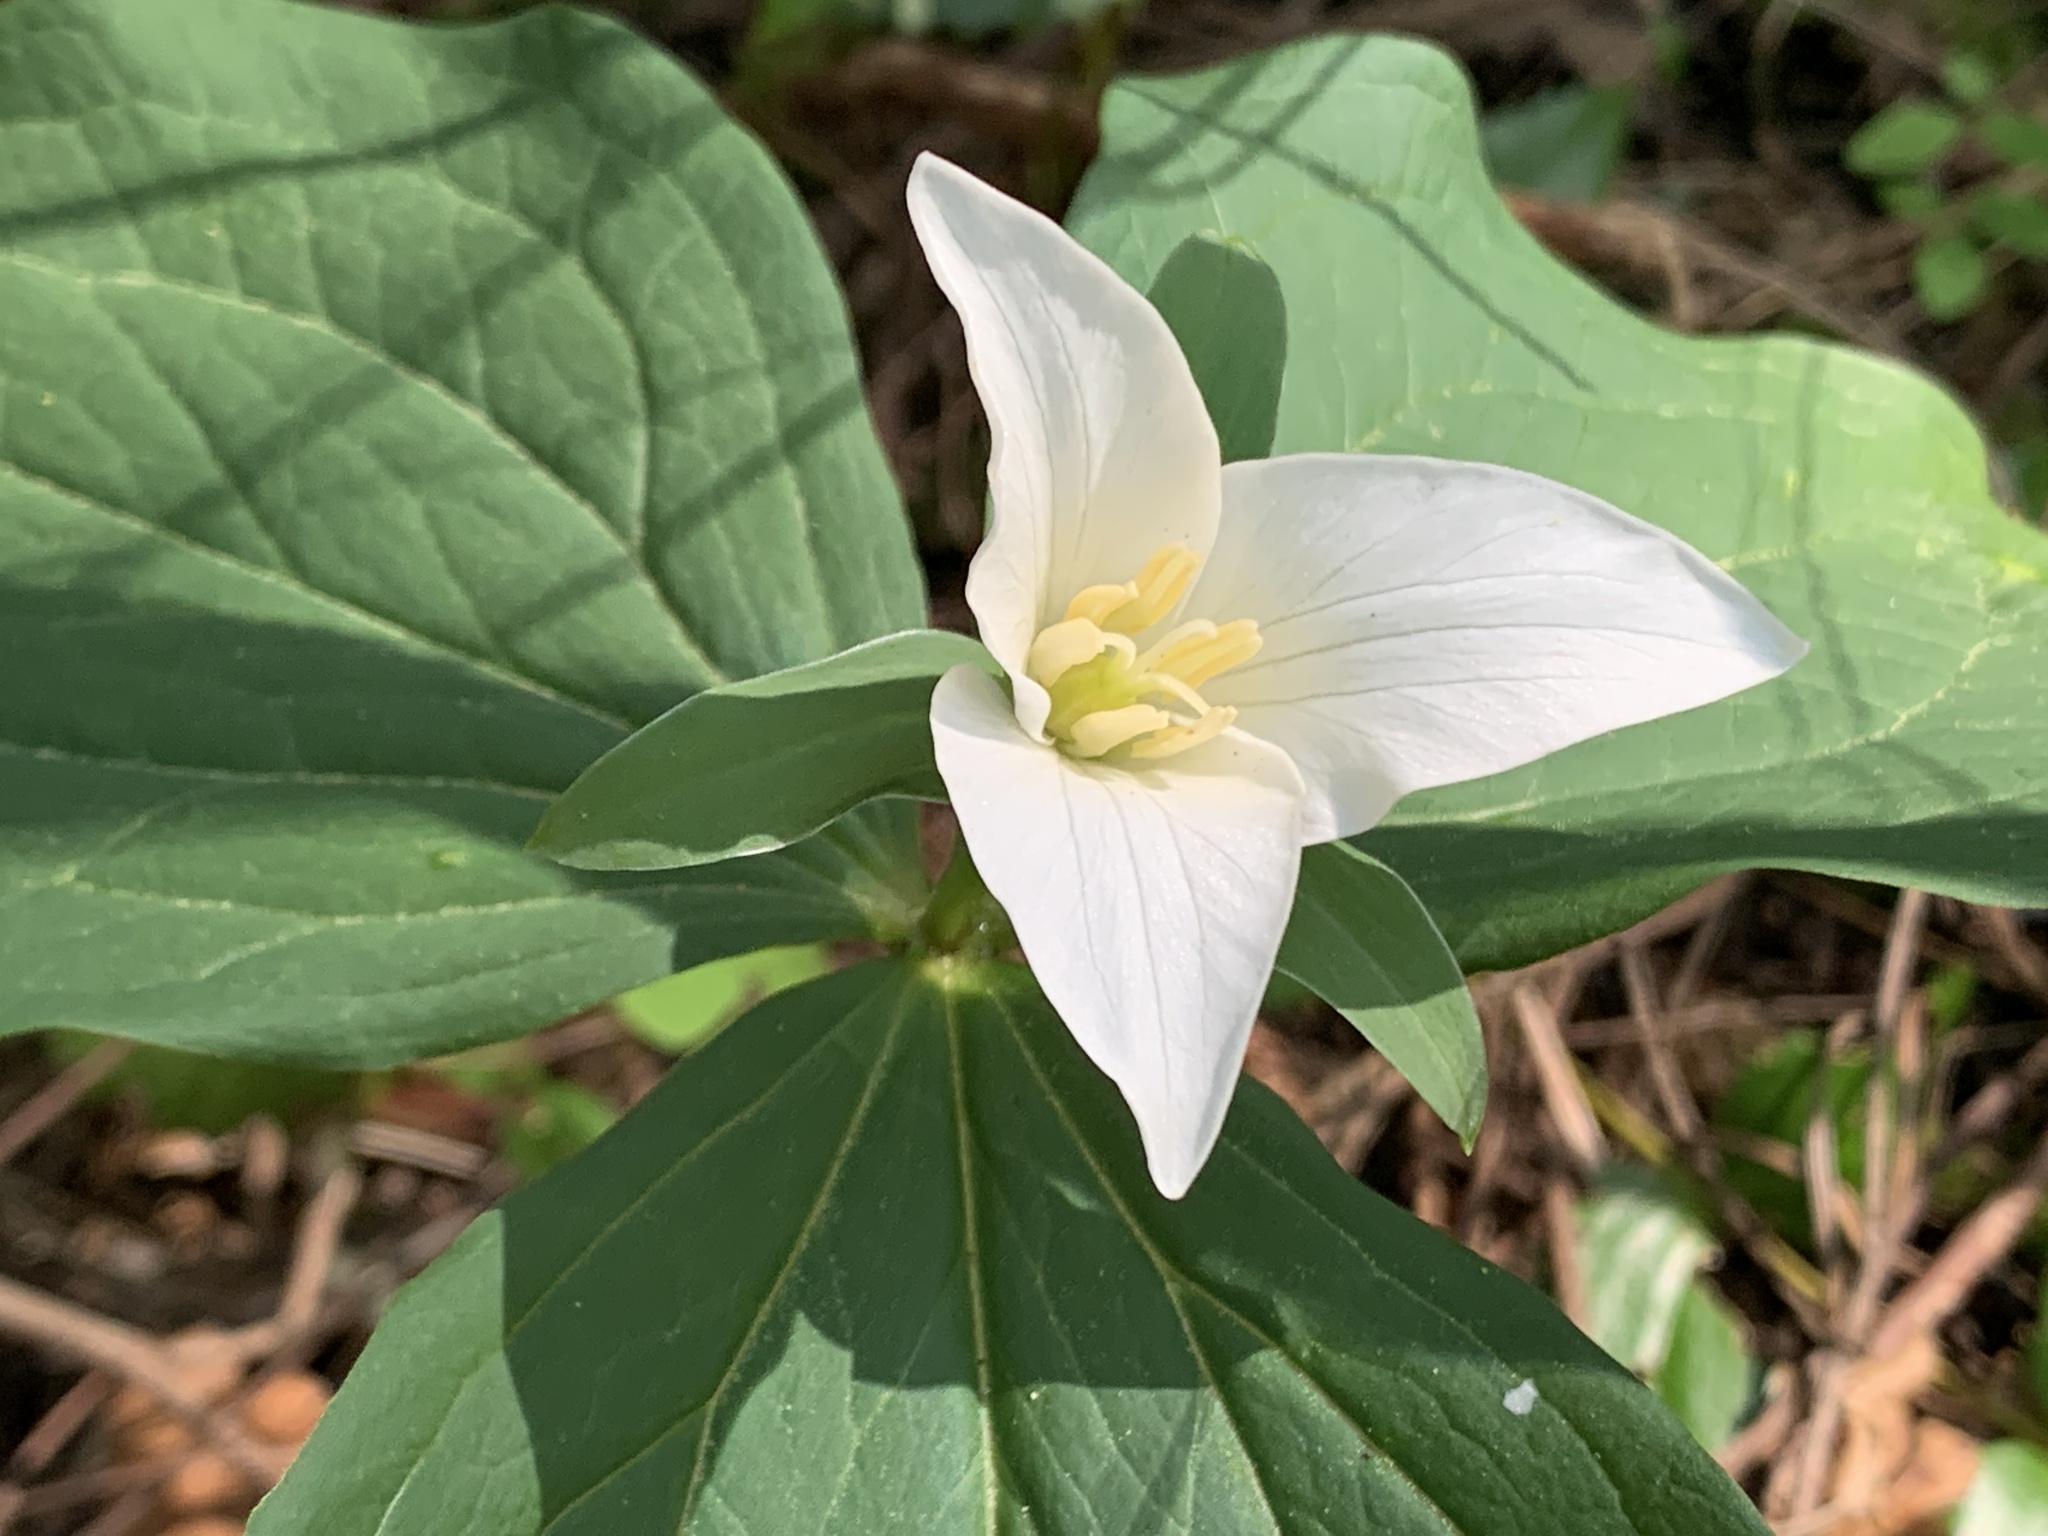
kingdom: Plantae
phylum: Tracheophyta
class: Liliopsida
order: Liliales
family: Melanthiaceae
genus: Trillium
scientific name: Trillium ovatum
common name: Pacific trillium
